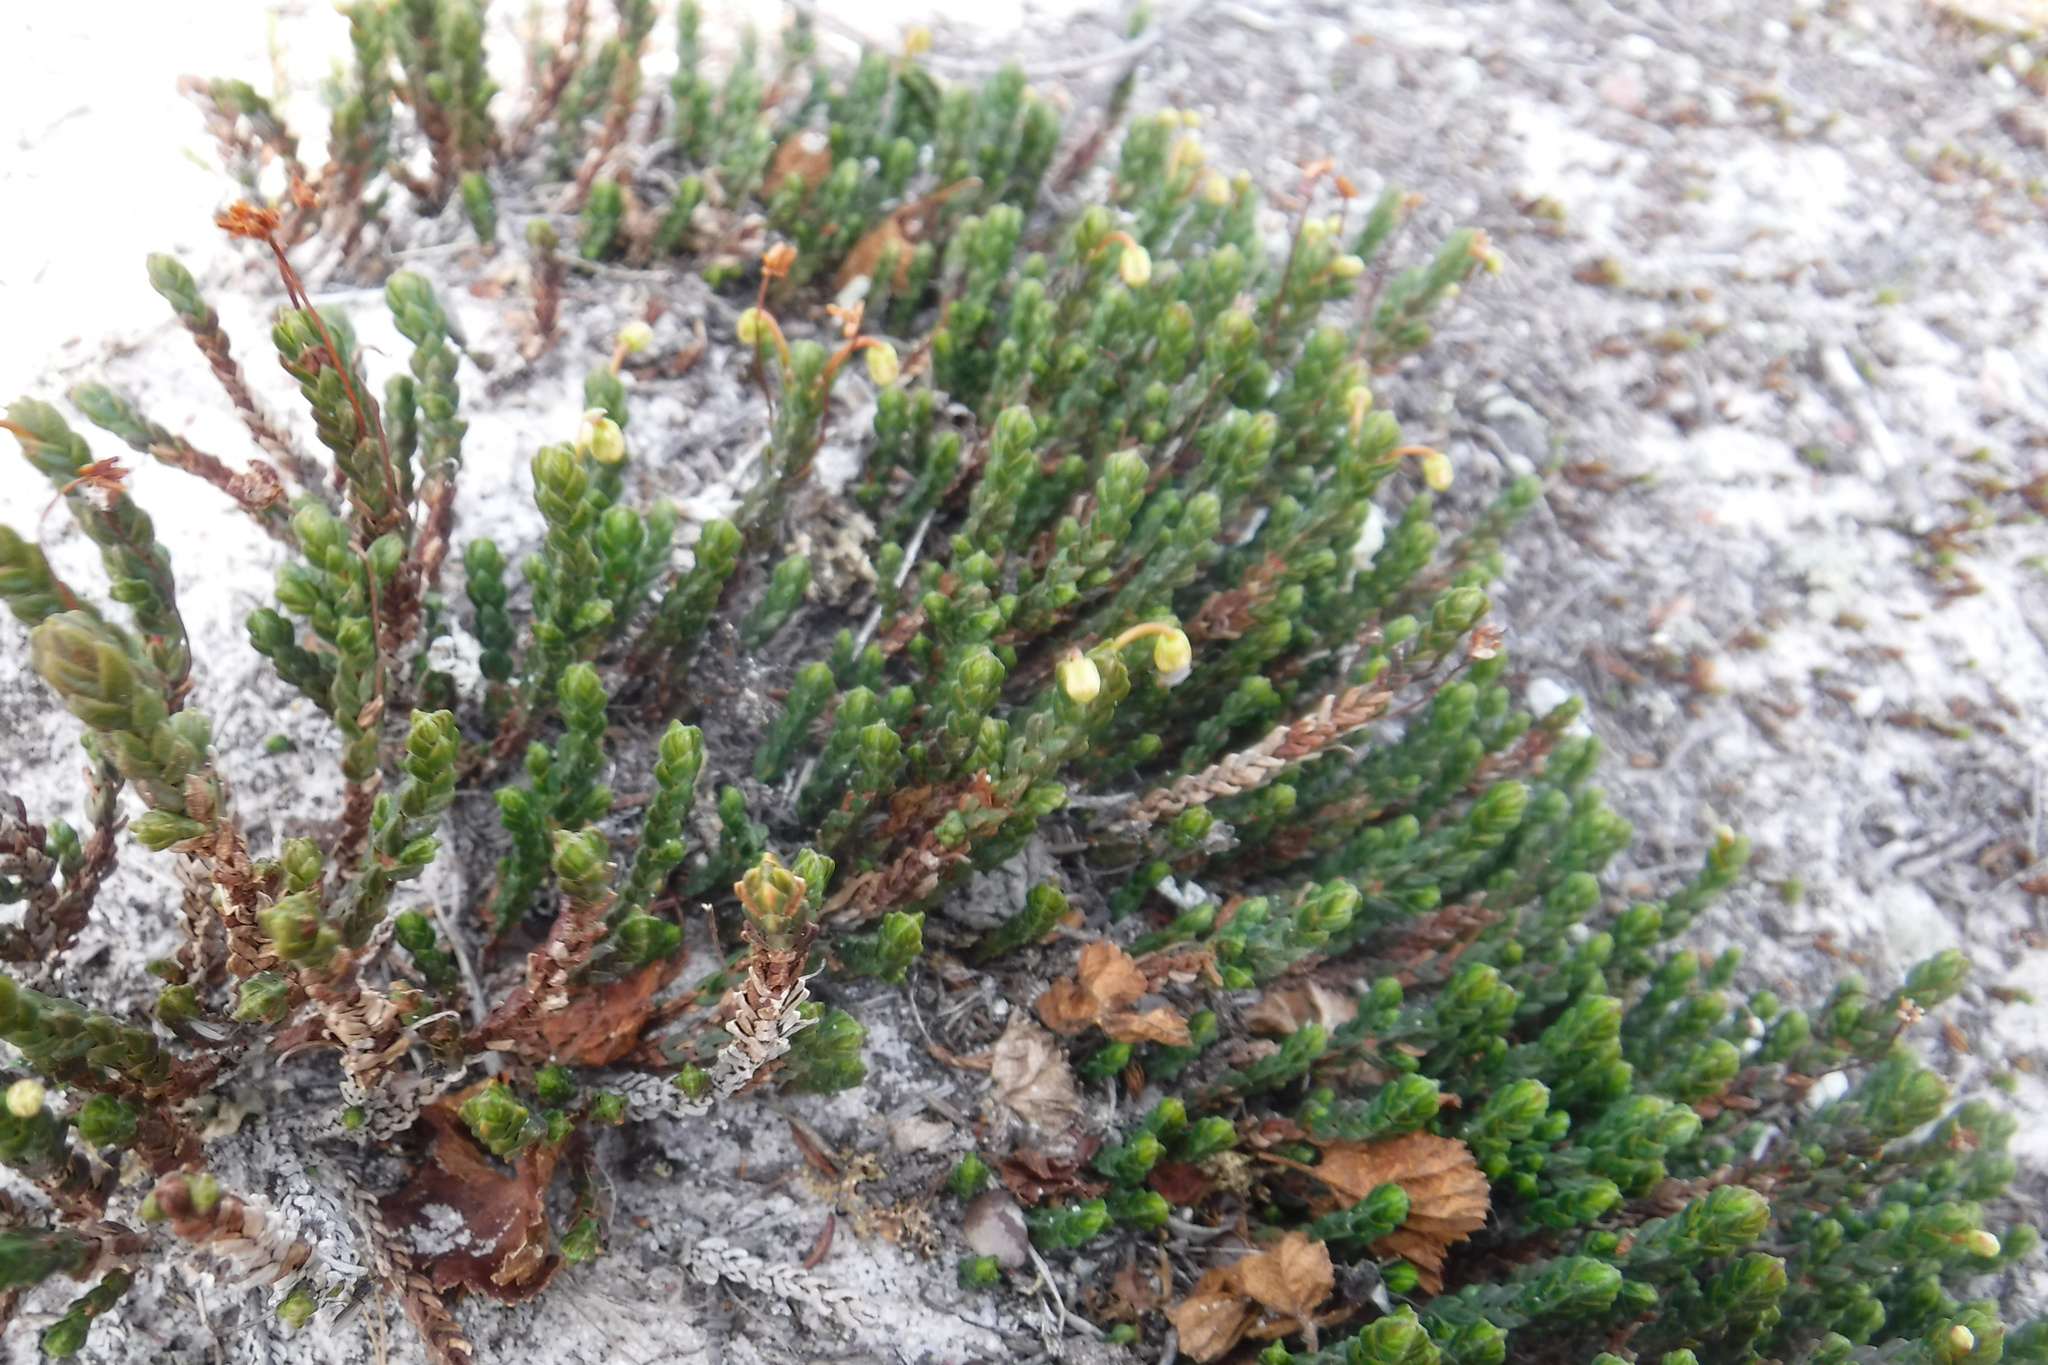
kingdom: Plantae
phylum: Tracheophyta
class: Magnoliopsida
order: Ericales
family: Ericaceae
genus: Cassiope
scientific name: Cassiope tetragona
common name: Arctic bell heather
